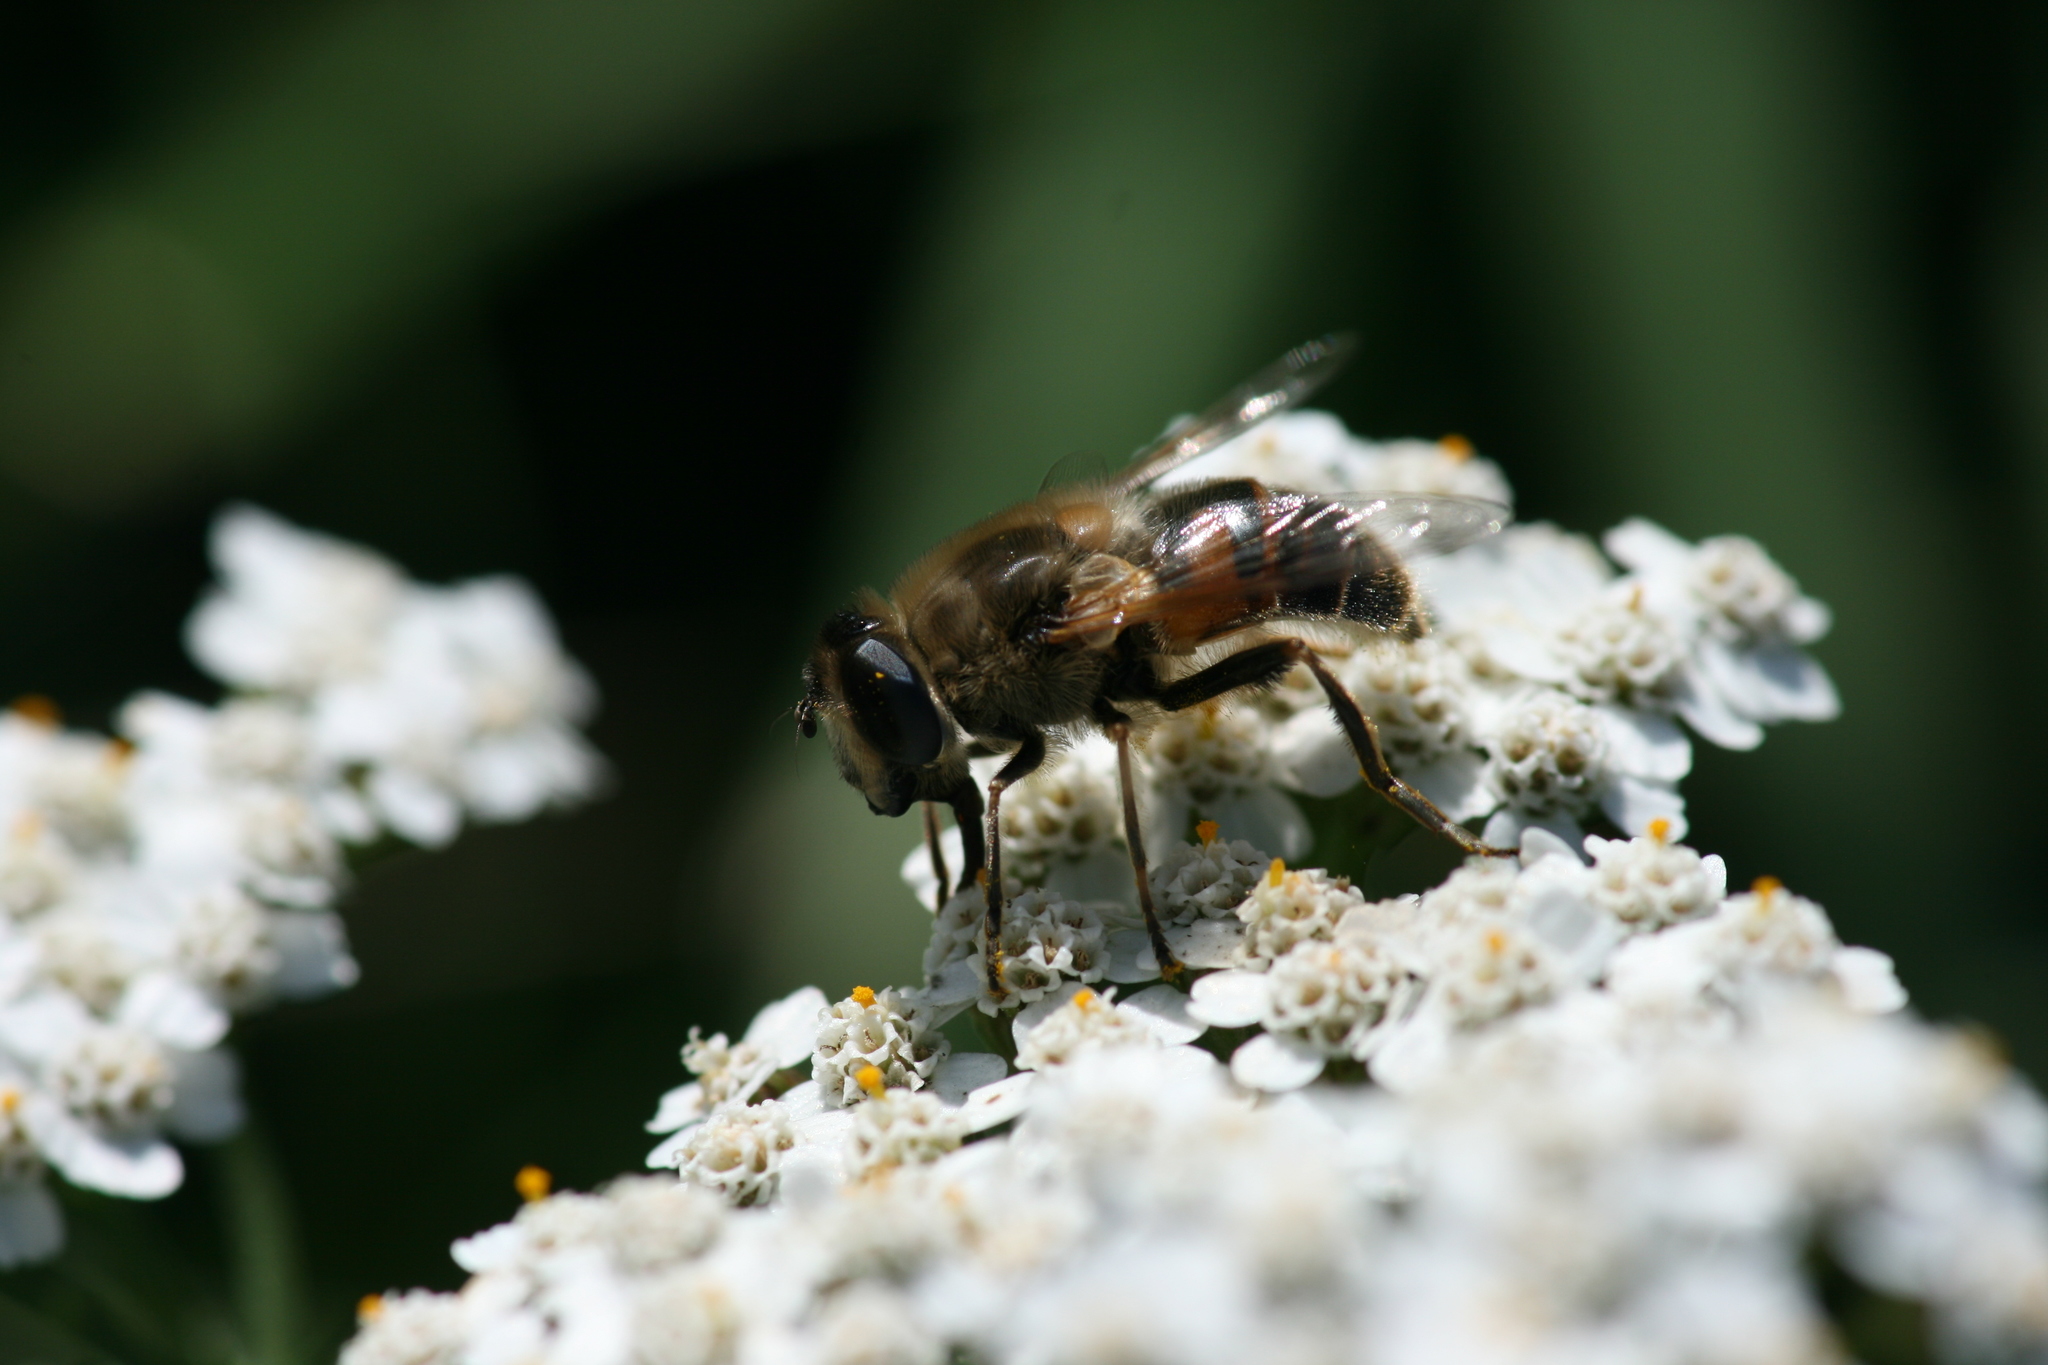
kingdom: Animalia
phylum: Arthropoda
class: Insecta
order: Diptera
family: Syrphidae
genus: Eristalis
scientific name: Eristalis tenax
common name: Drone fly
